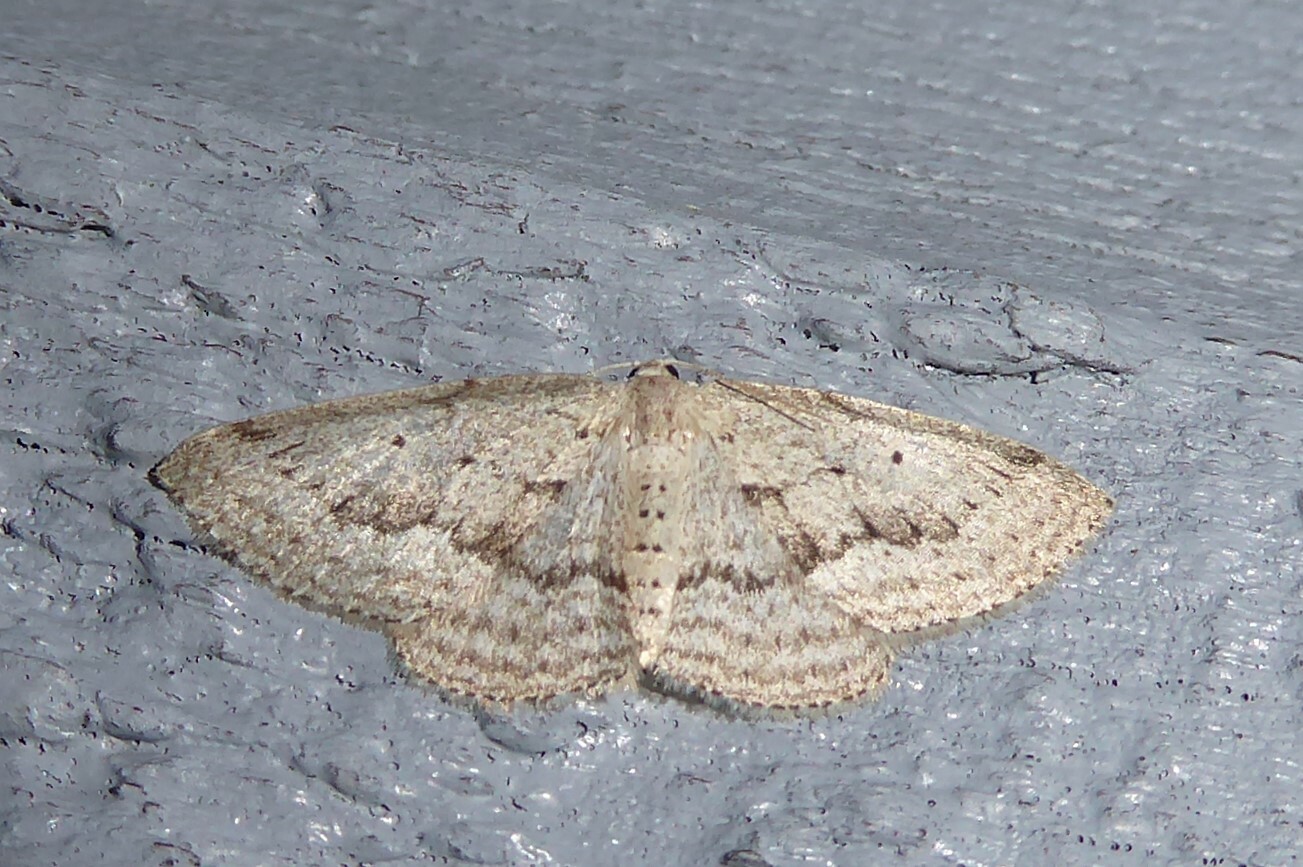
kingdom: Animalia
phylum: Arthropoda
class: Insecta
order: Lepidoptera
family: Geometridae
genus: Poecilasthena
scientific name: Poecilasthena schistaria
